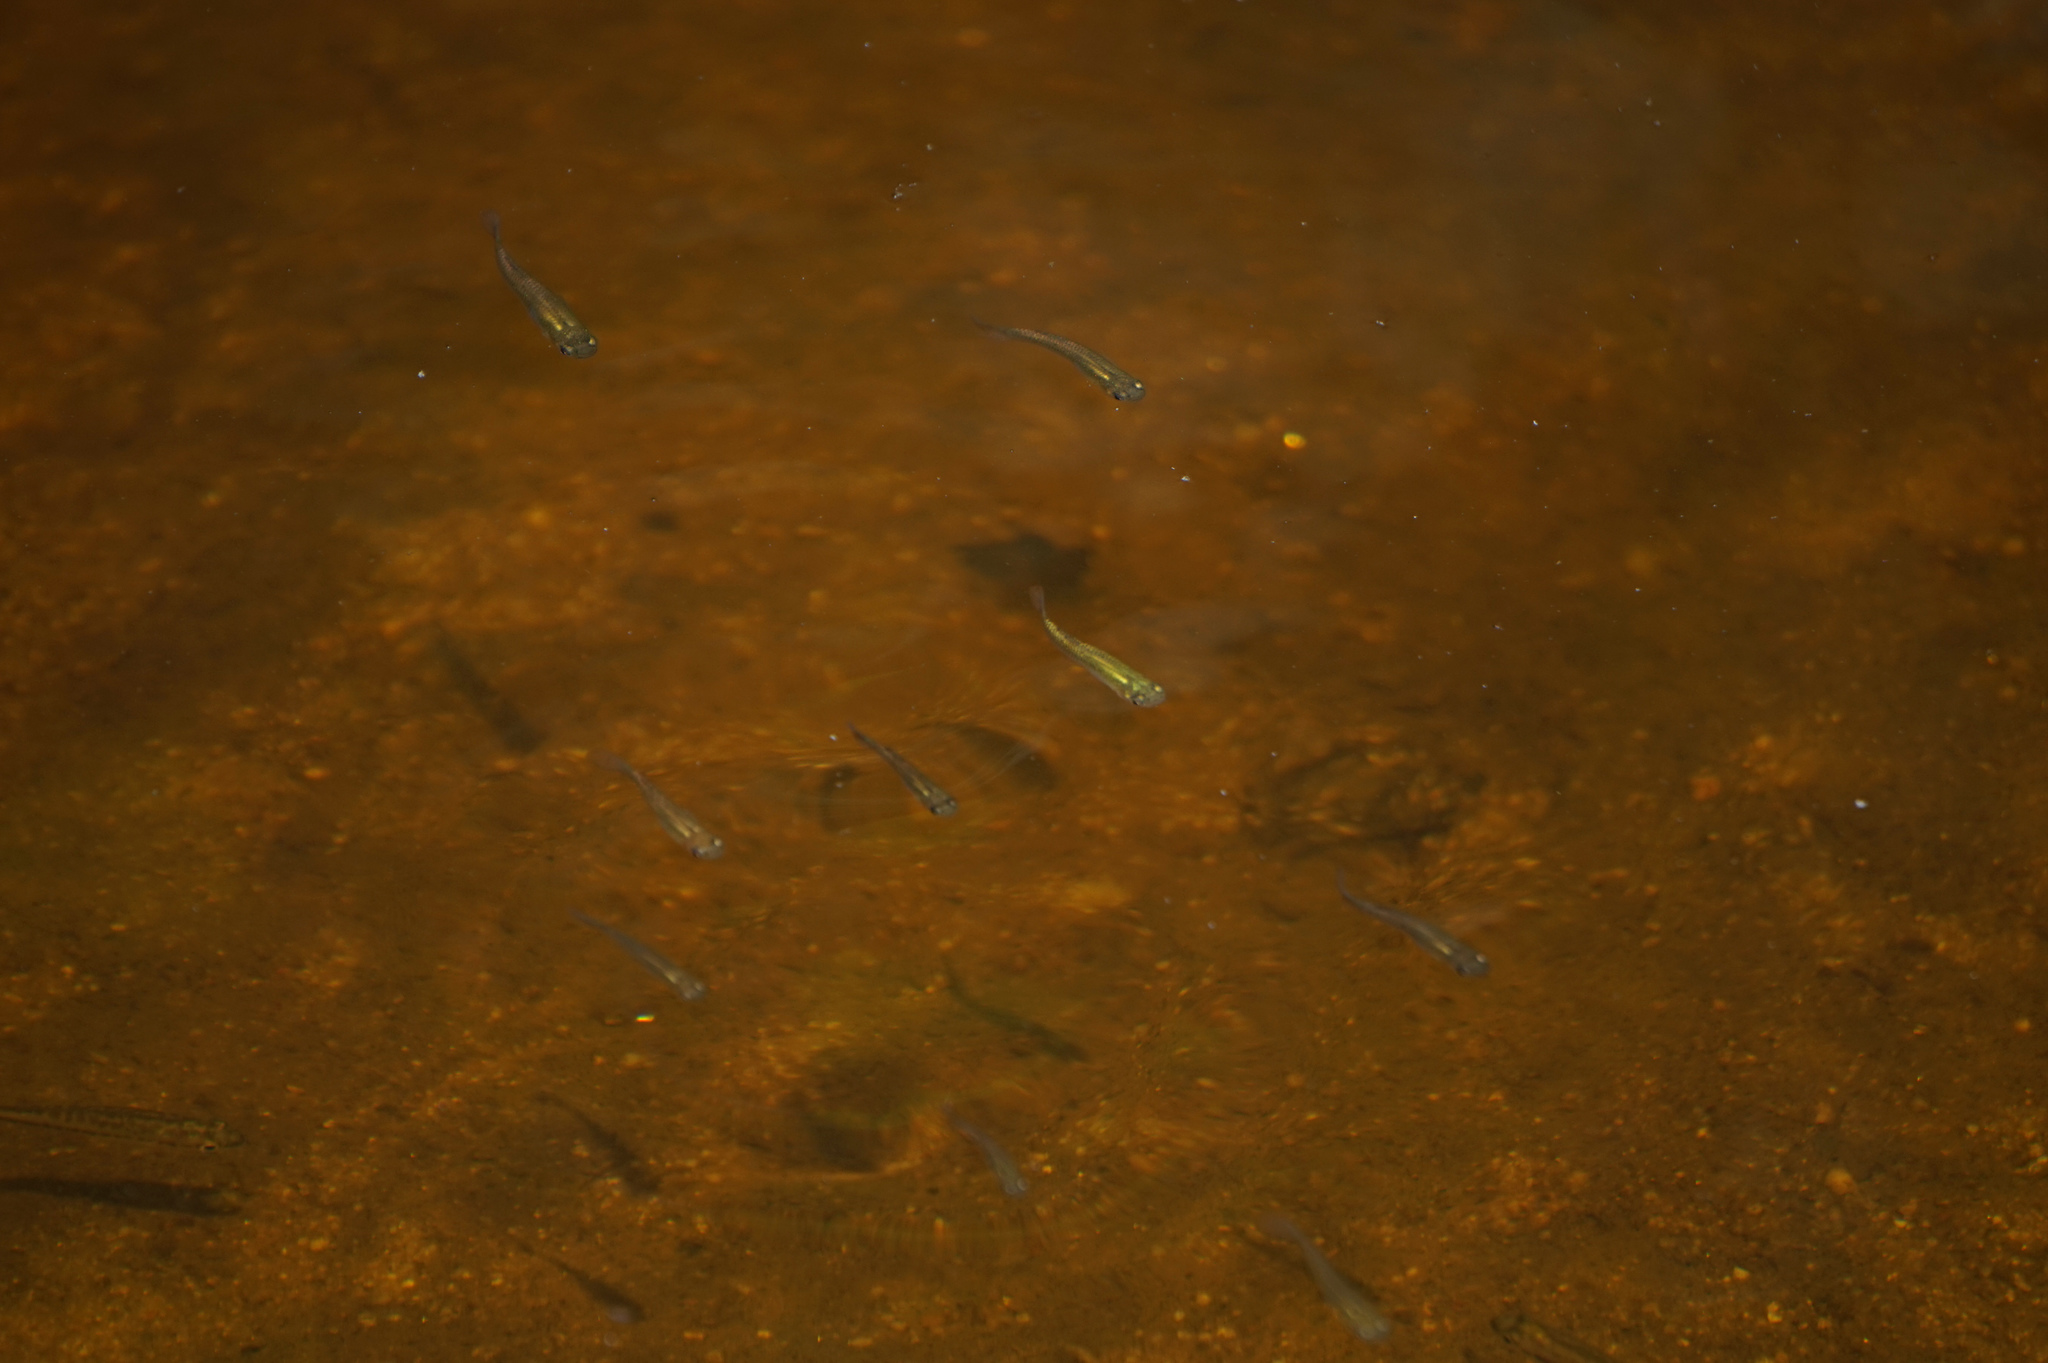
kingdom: Animalia
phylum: Chordata
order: Cyprinodontiformes
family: Poeciliidae
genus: Gambusia
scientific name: Gambusia holbrooki
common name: Eastern mosquitofish
